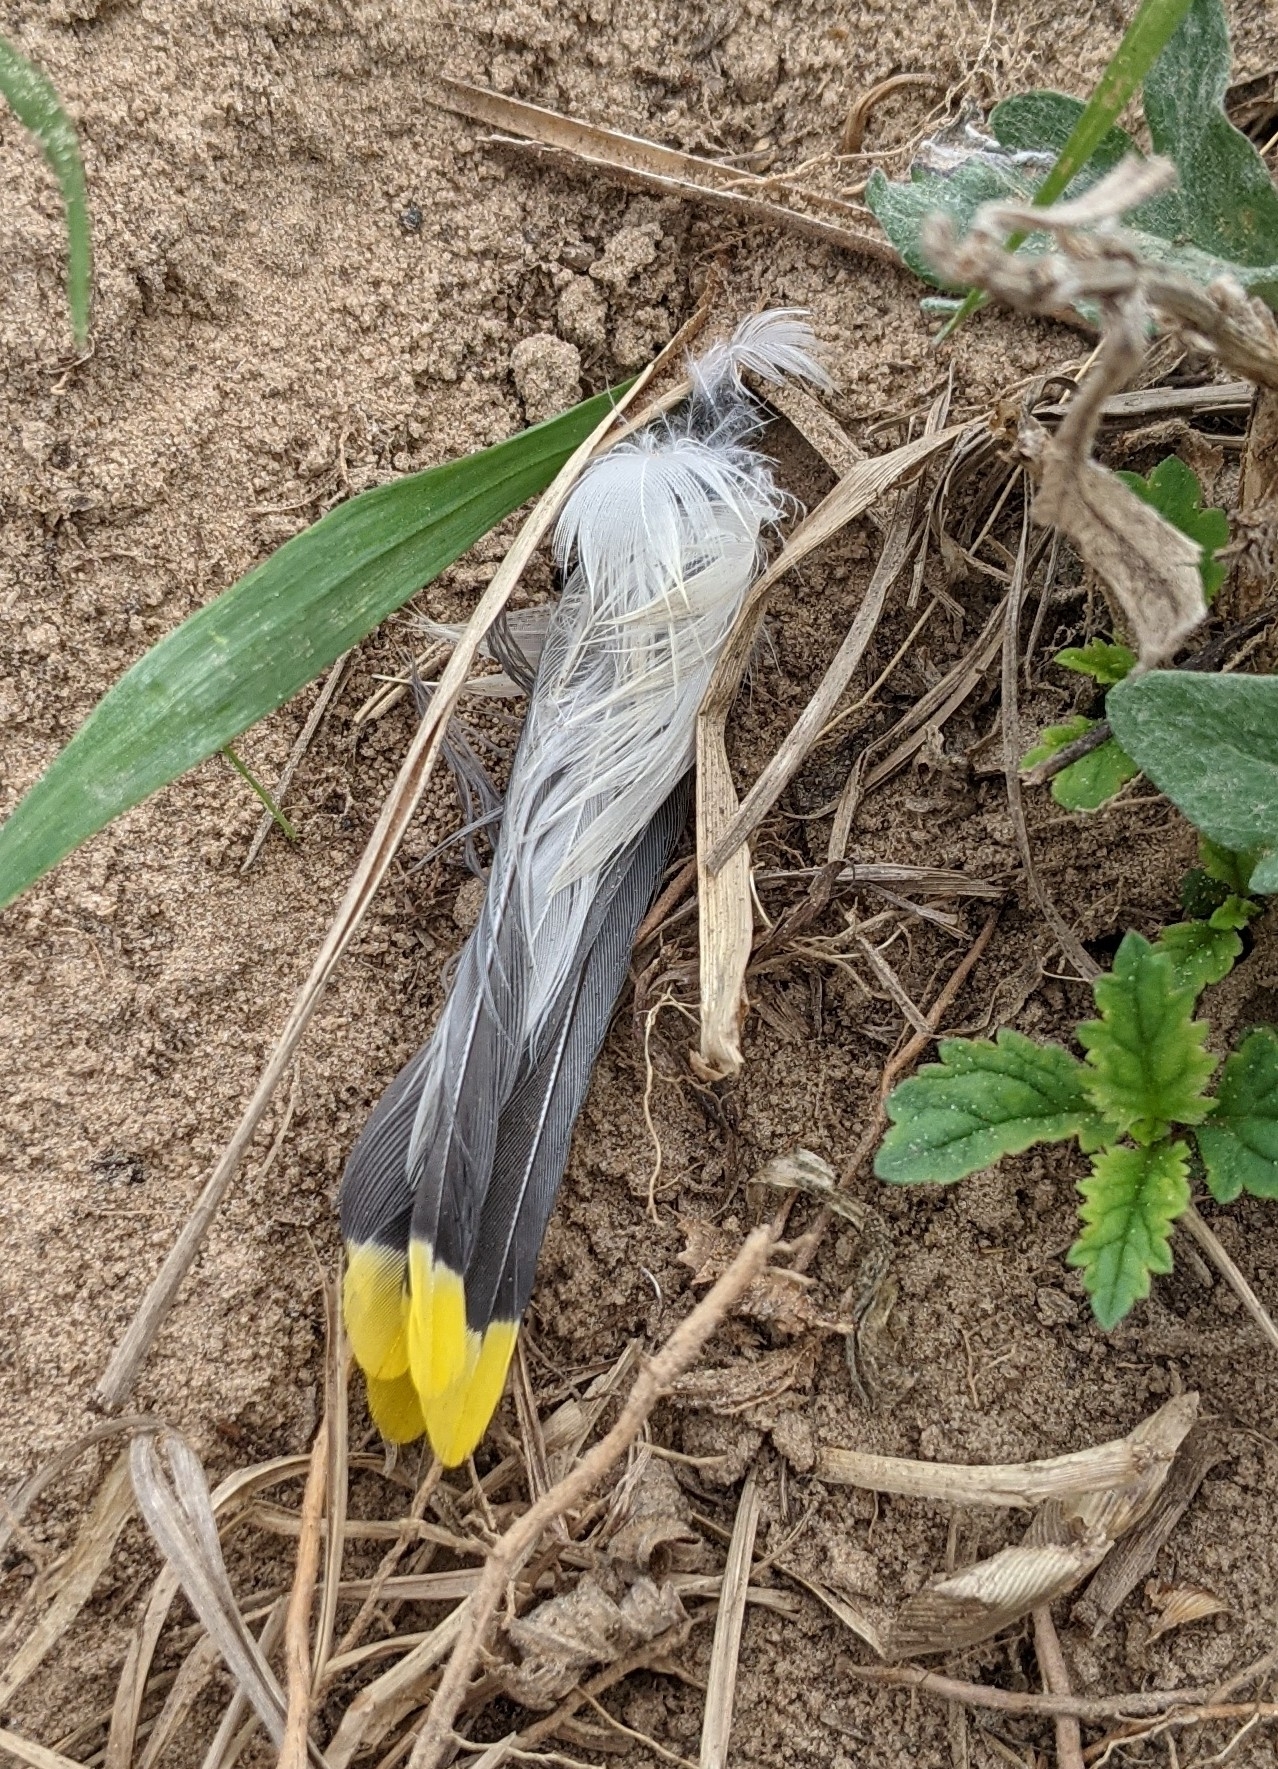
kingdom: Animalia
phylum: Chordata
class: Aves
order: Passeriformes
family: Bombycillidae
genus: Bombycilla
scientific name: Bombycilla cedrorum
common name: Cedar waxwing
